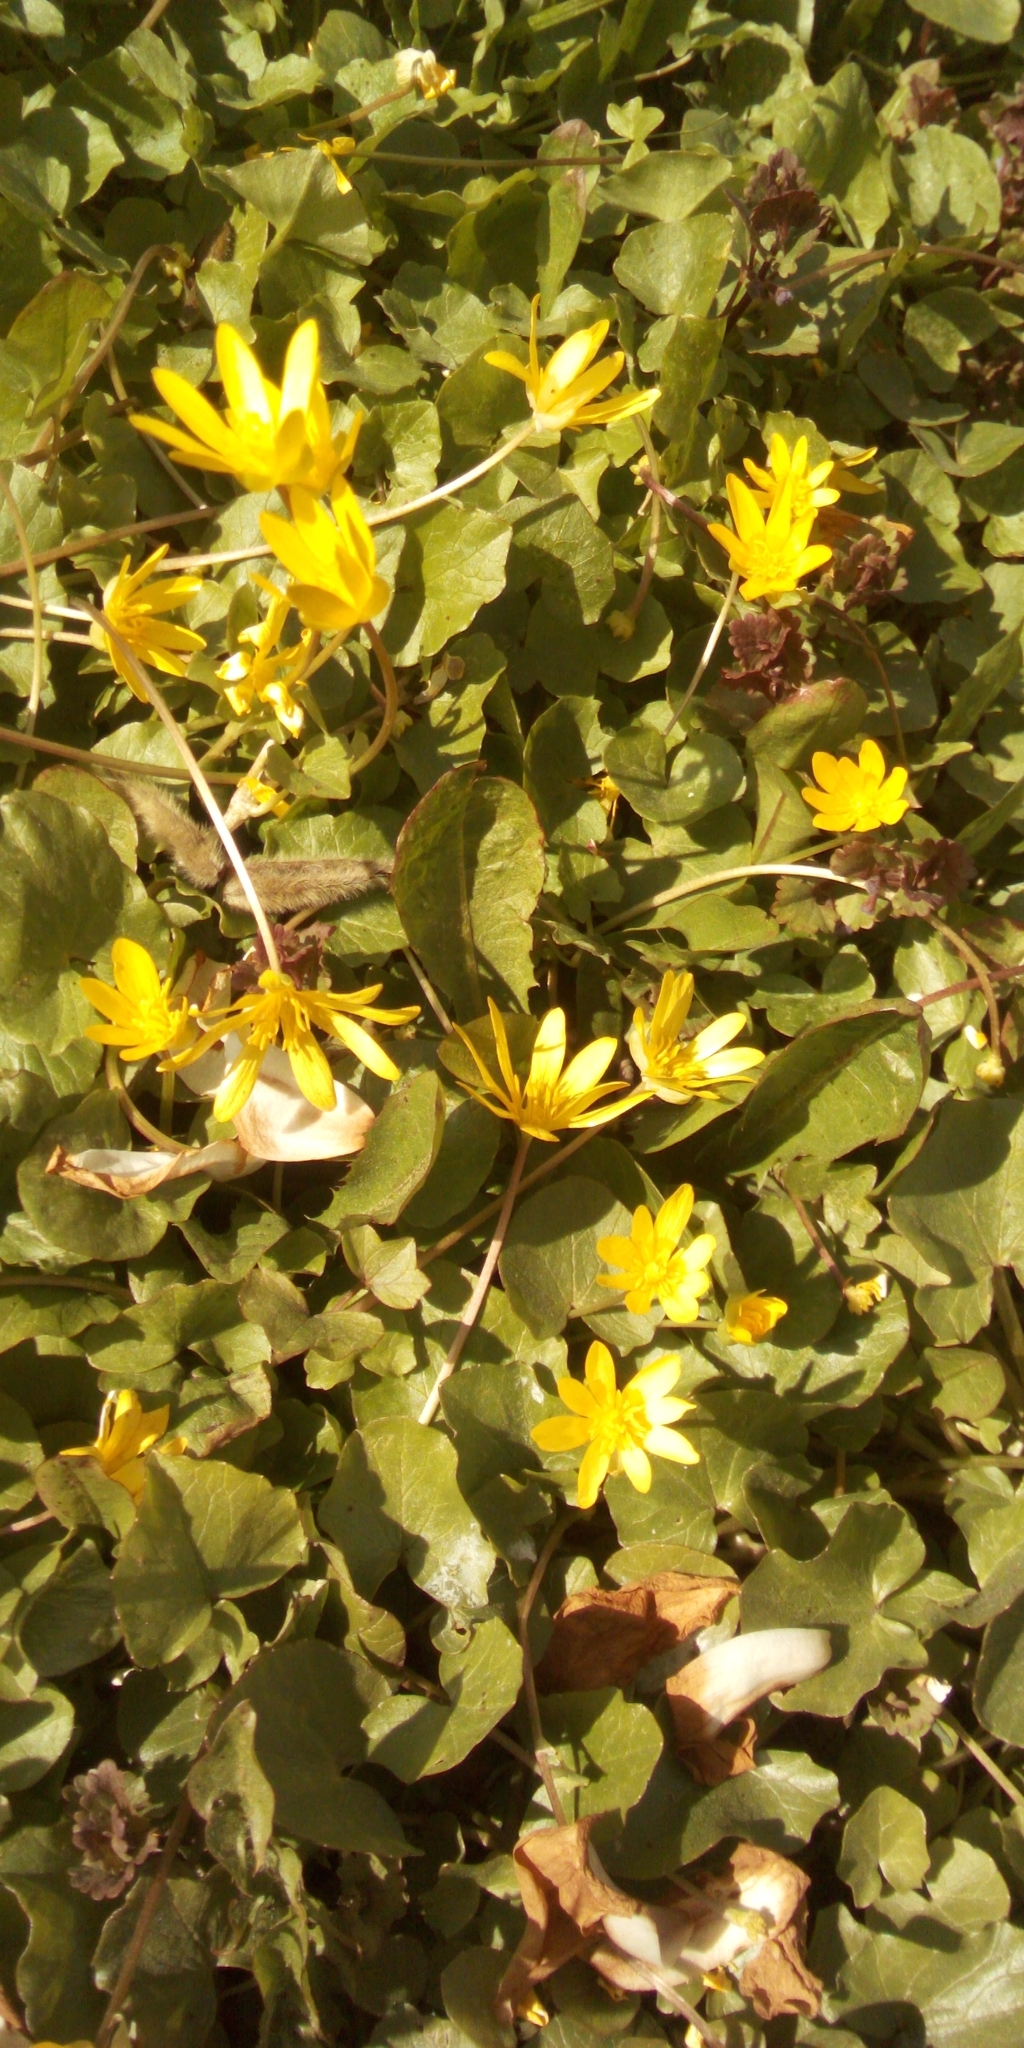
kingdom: Plantae
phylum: Tracheophyta
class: Magnoliopsida
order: Ranunculales
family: Ranunculaceae
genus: Ficaria
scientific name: Ficaria verna
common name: Lesser celandine
